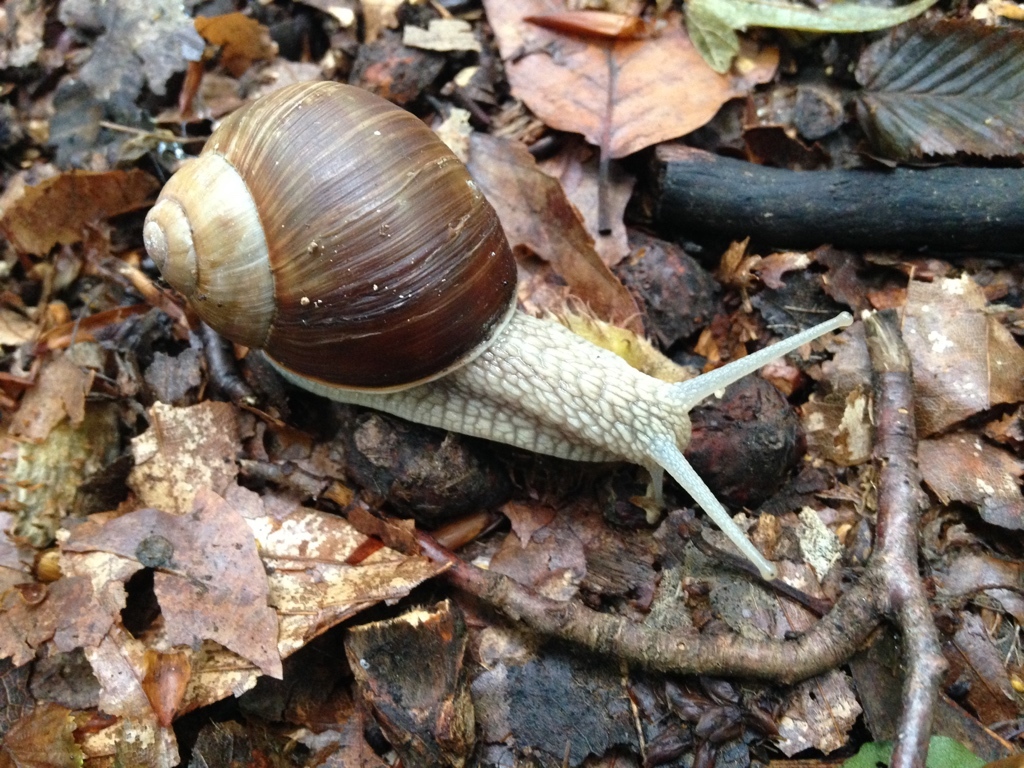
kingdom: Animalia
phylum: Mollusca
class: Gastropoda
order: Stylommatophora
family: Helicidae
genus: Helix
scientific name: Helix pomatia
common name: Roman snail
